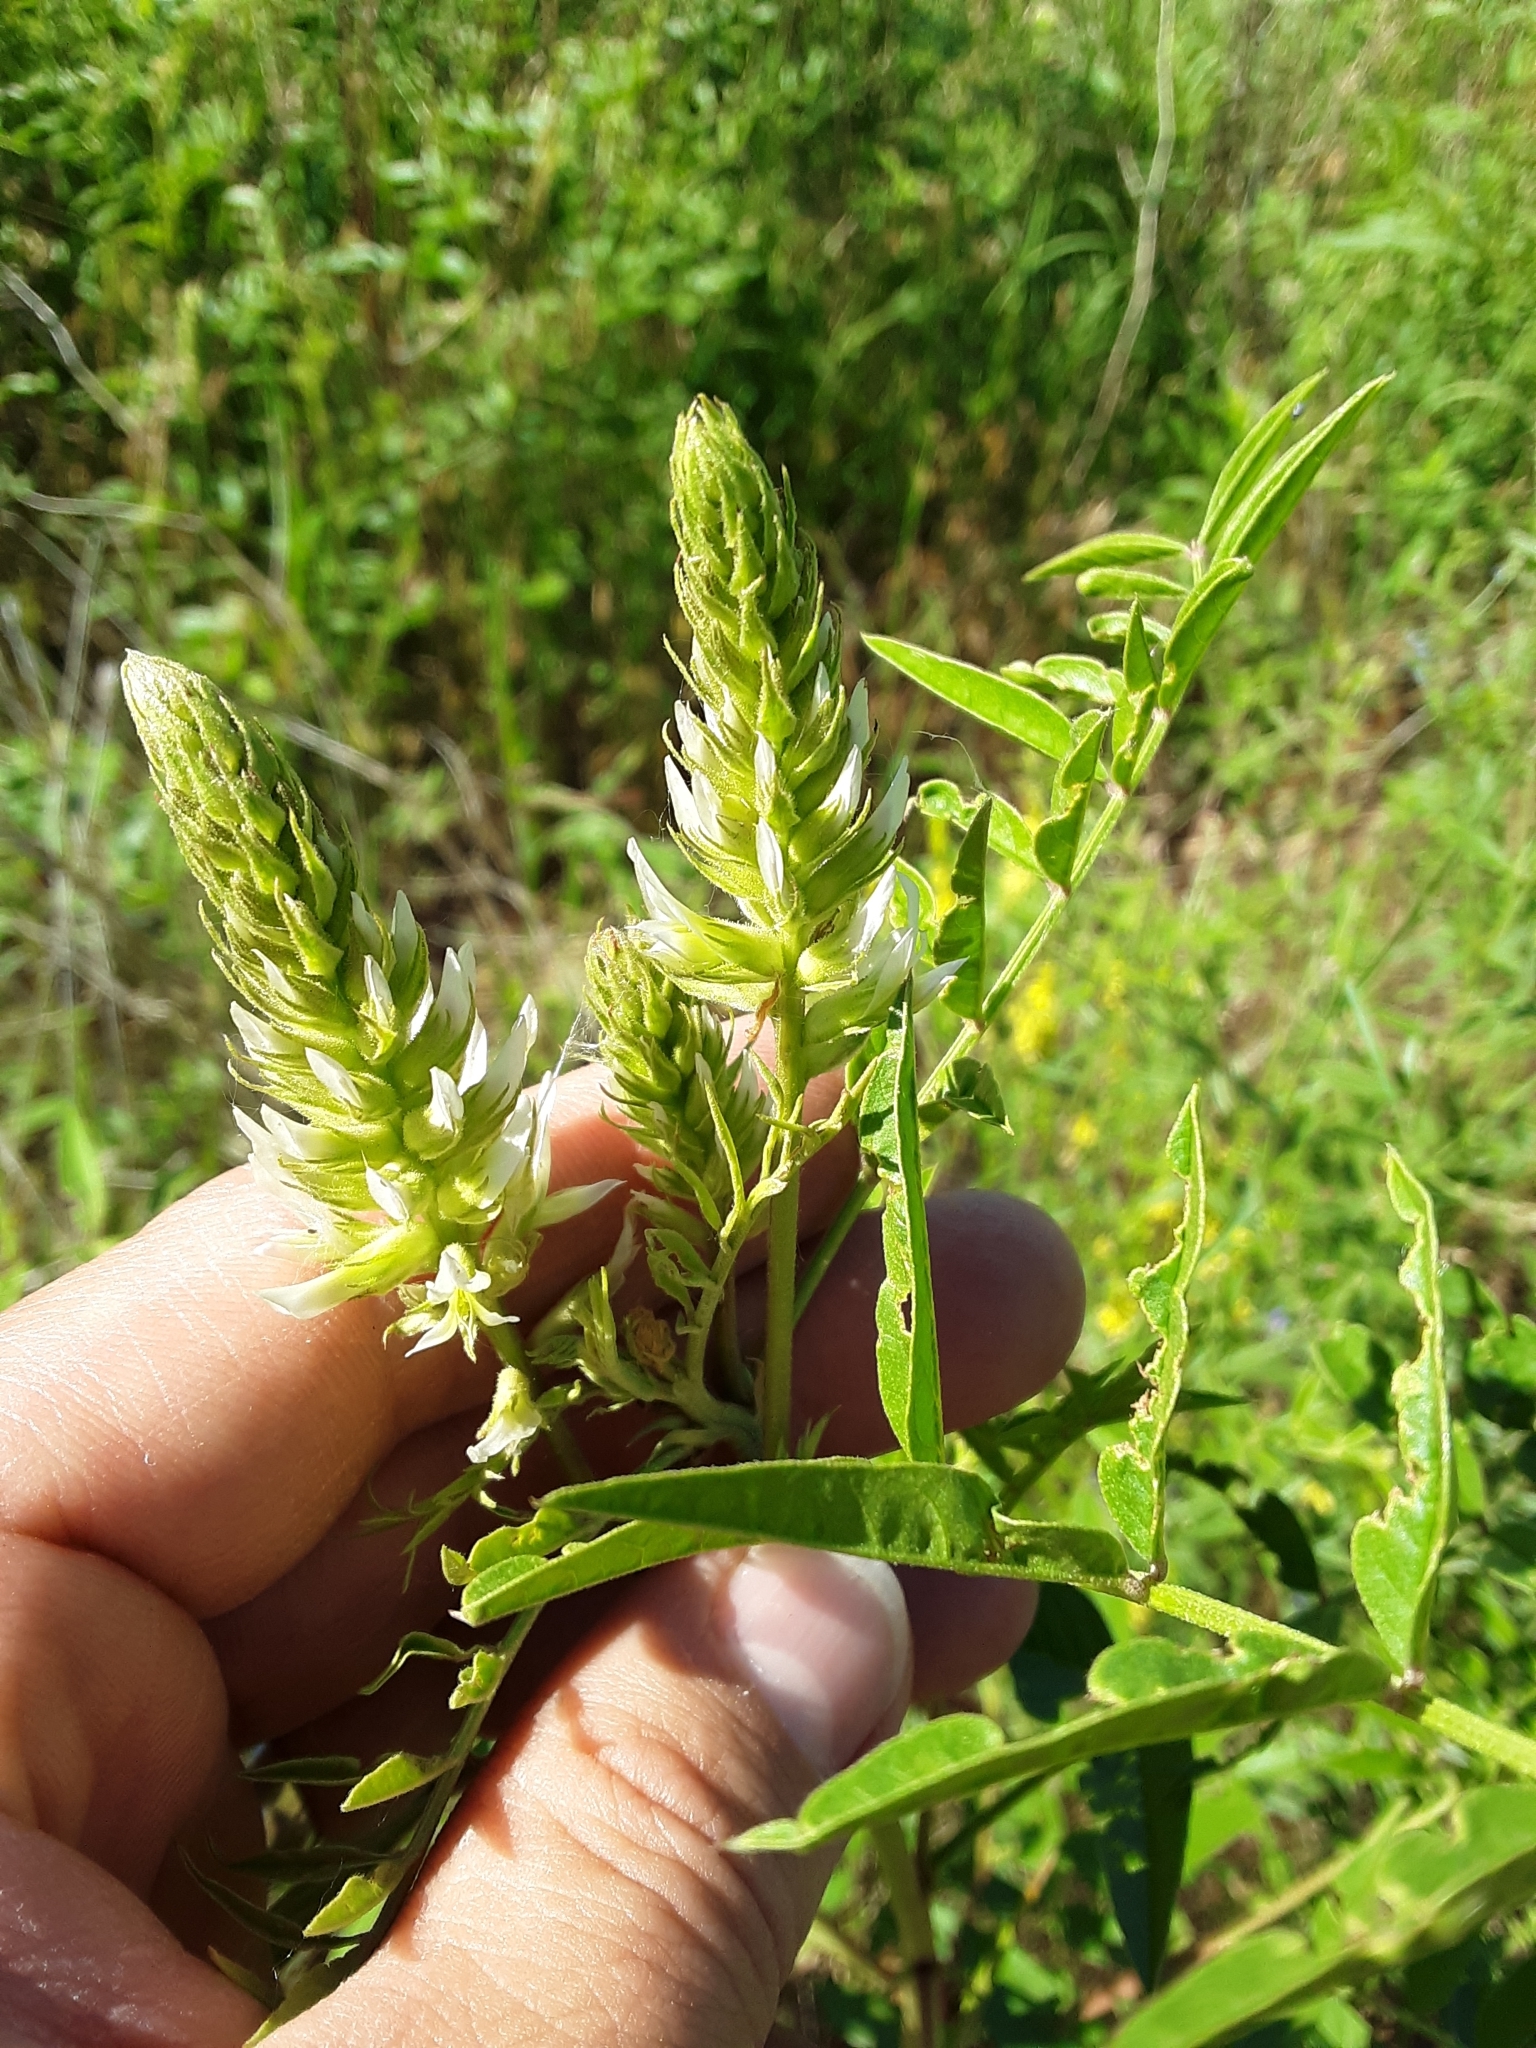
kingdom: Plantae
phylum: Tracheophyta
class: Magnoliopsida
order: Fabales
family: Fabaceae
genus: Glycyrrhiza
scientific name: Glycyrrhiza lepidota
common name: American liquorice
